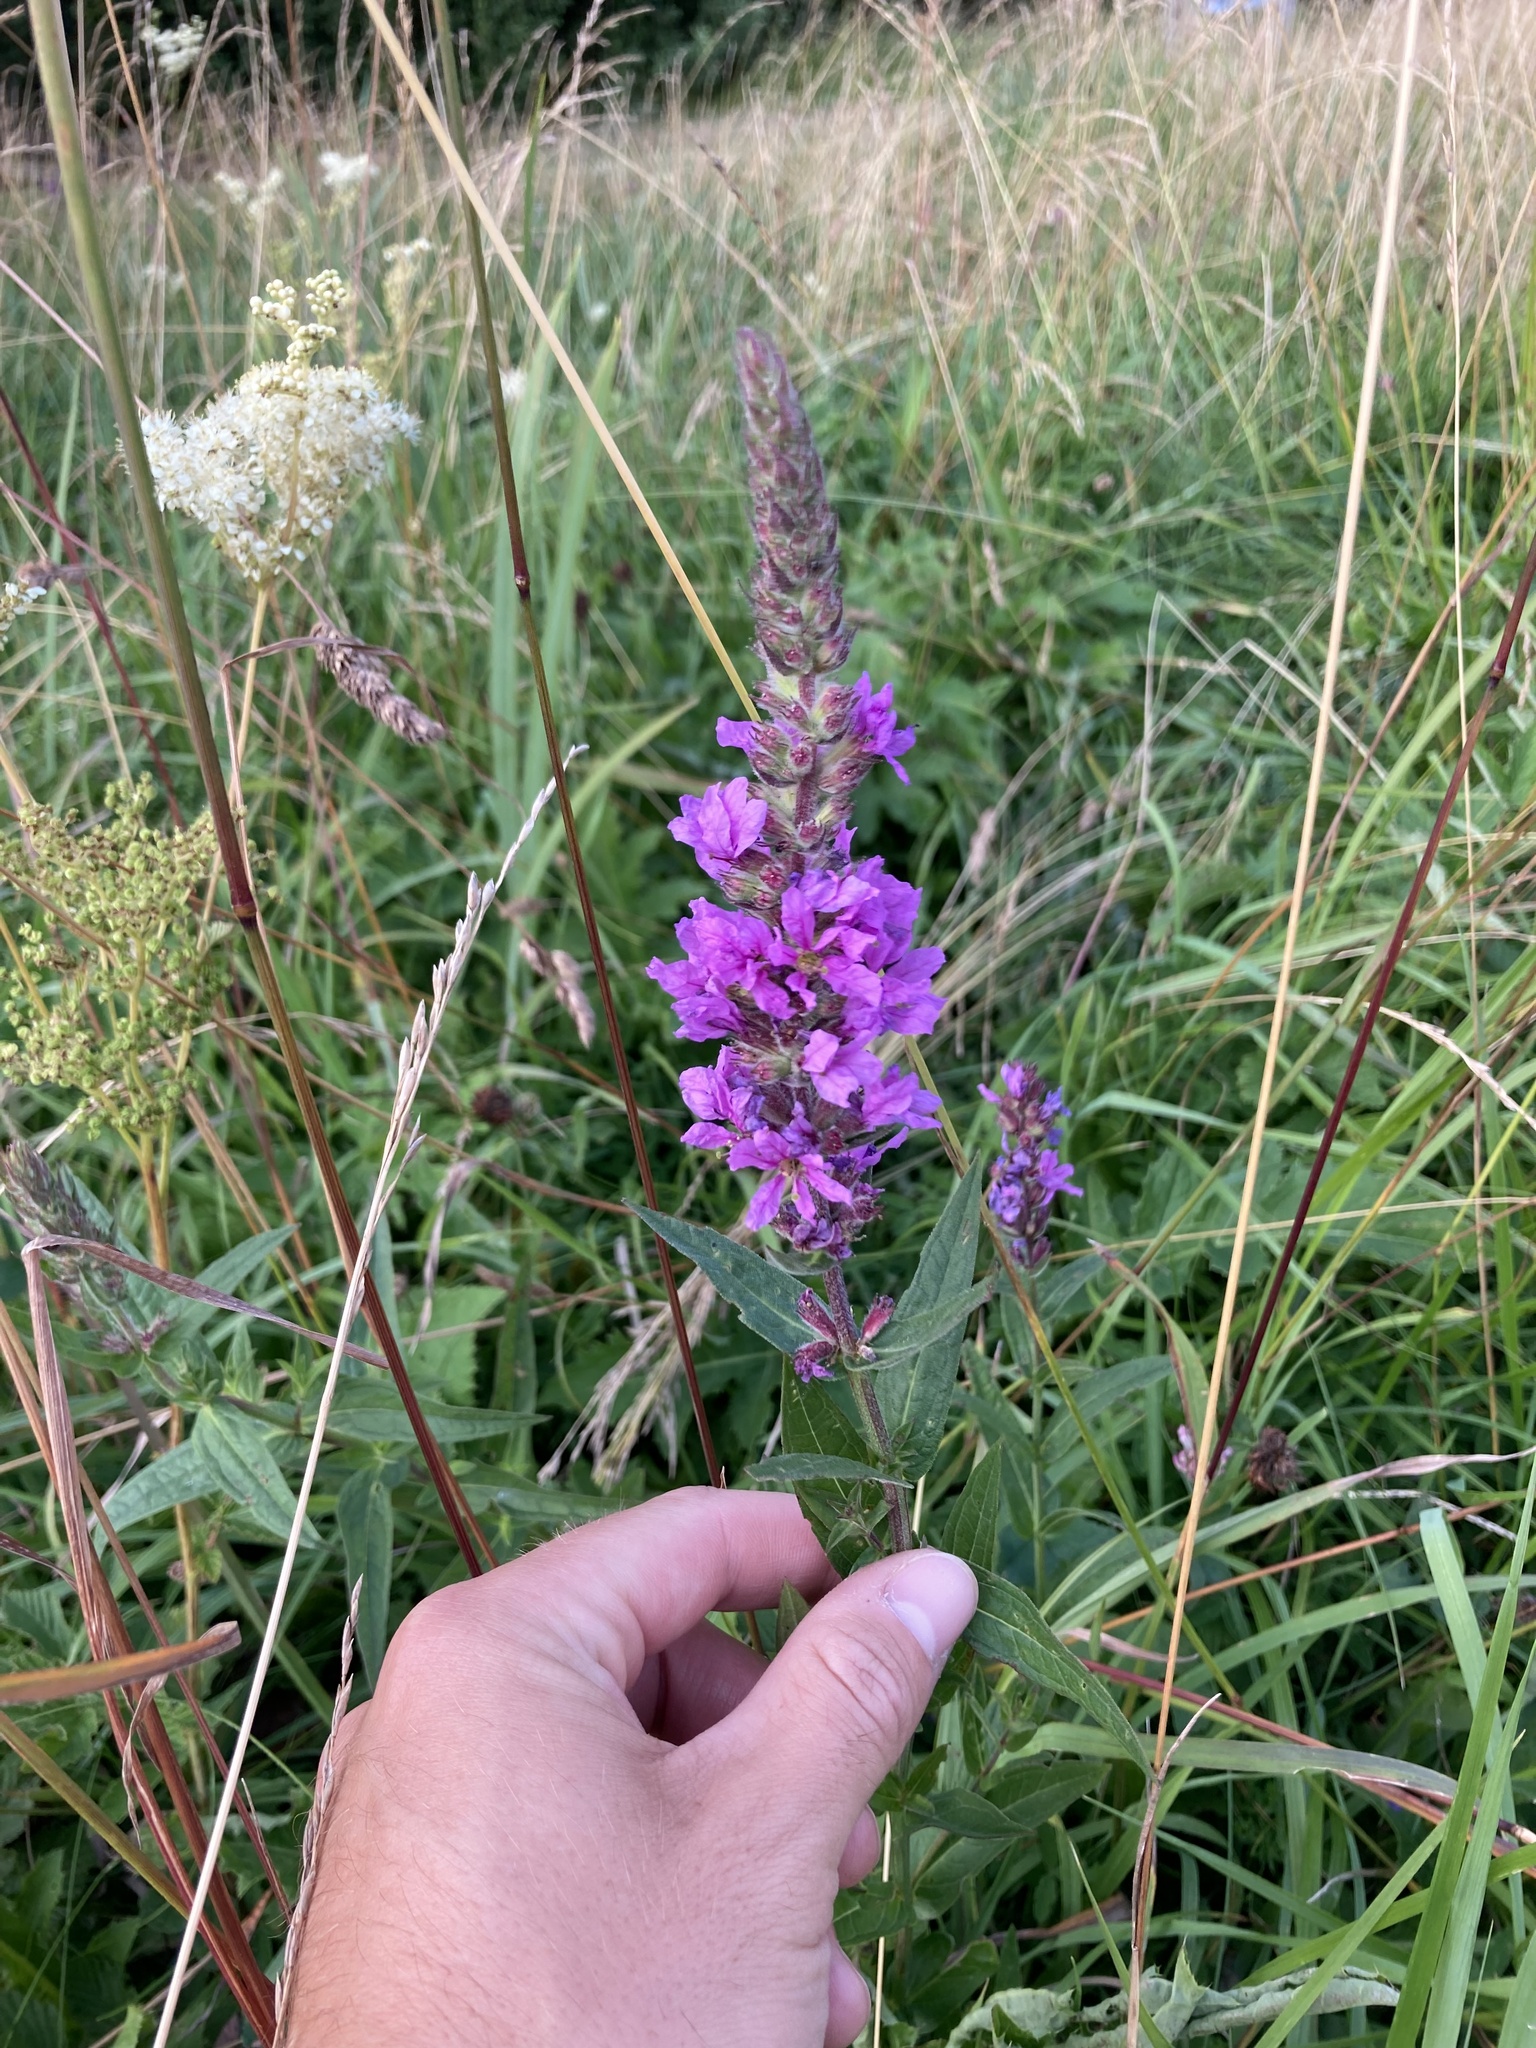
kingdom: Plantae
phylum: Tracheophyta
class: Magnoliopsida
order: Myrtales
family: Lythraceae
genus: Lythrum
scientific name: Lythrum salicaria
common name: Purple loosestrife
